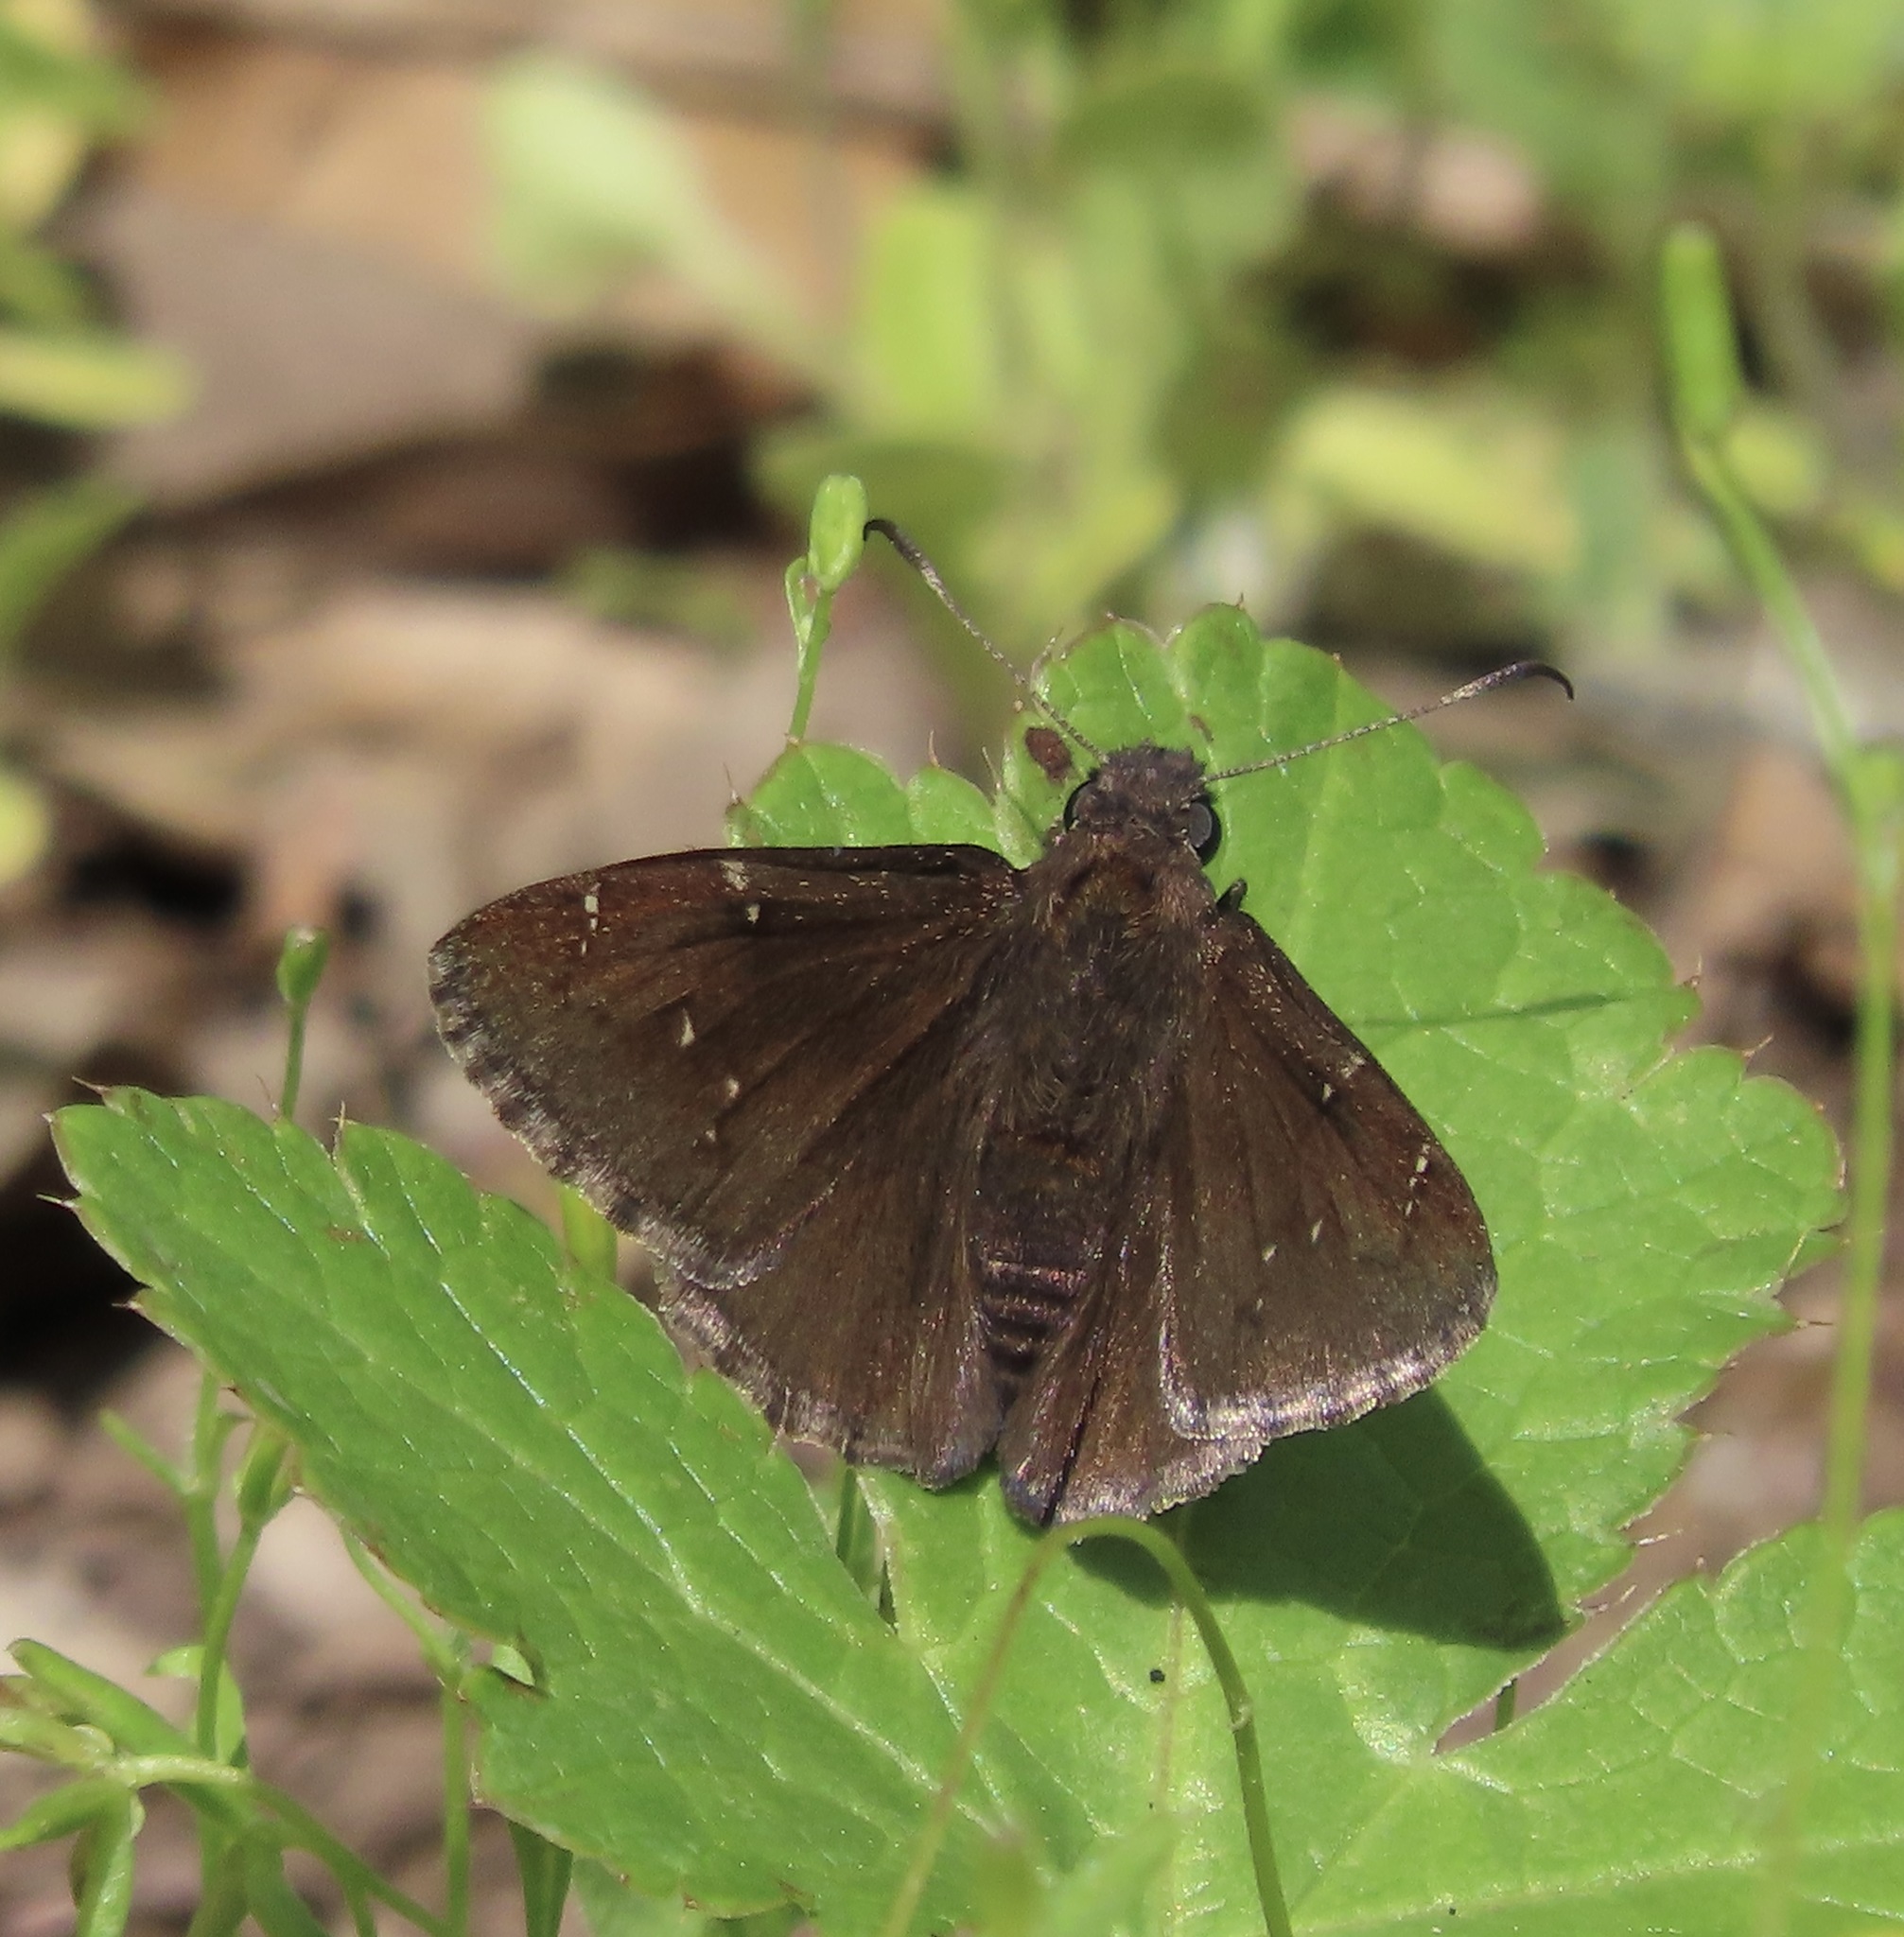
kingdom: Animalia
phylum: Arthropoda
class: Insecta
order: Lepidoptera
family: Hesperiidae
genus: Thorybes
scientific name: Thorybes pylades
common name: Northern cloudywing
